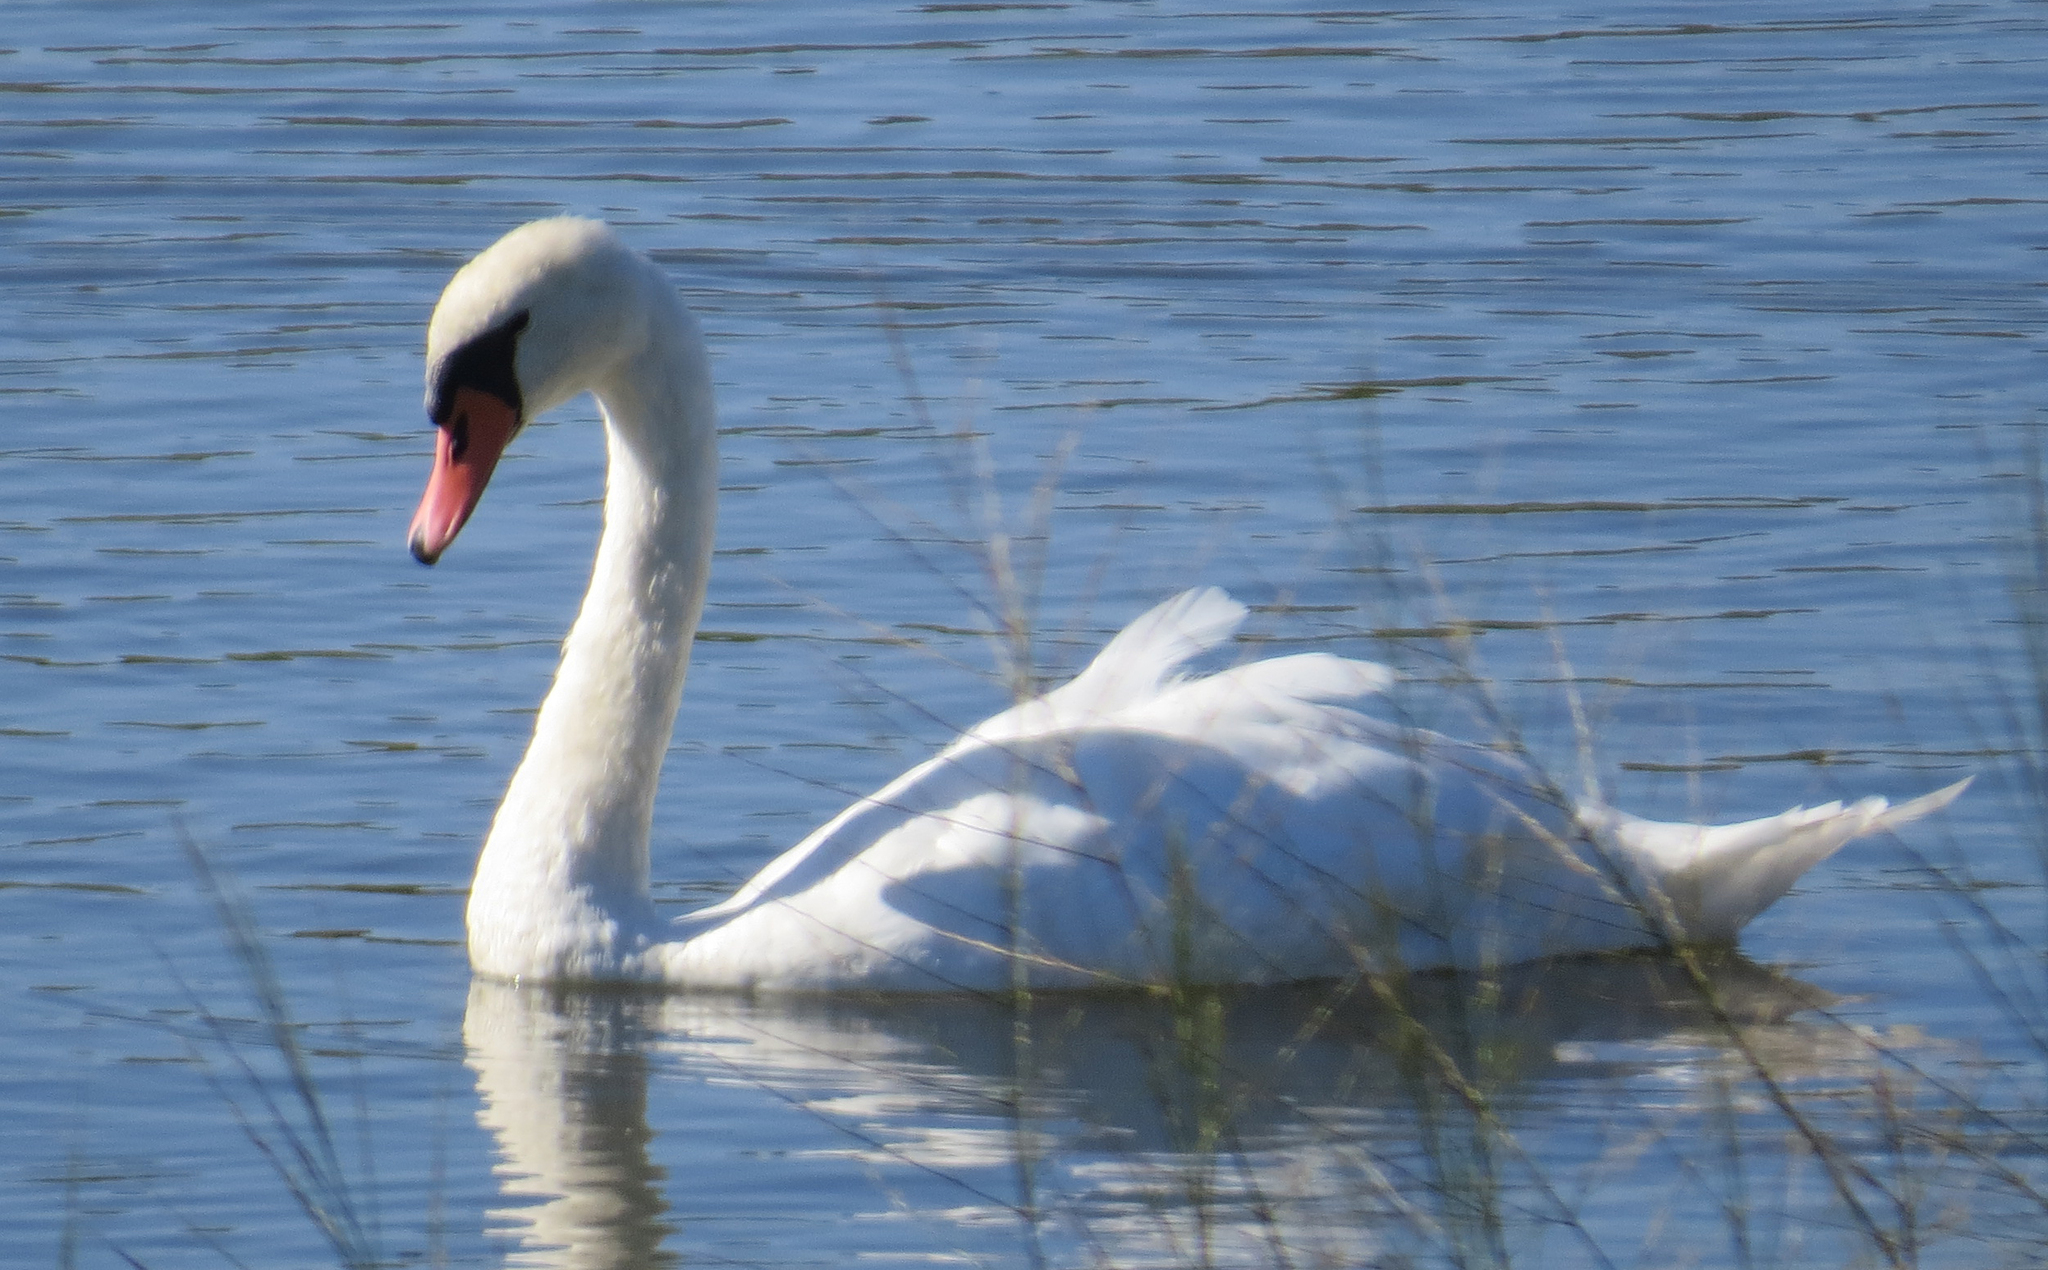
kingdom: Animalia
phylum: Chordata
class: Aves
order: Anseriformes
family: Anatidae
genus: Cygnus
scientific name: Cygnus olor
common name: Mute swan
